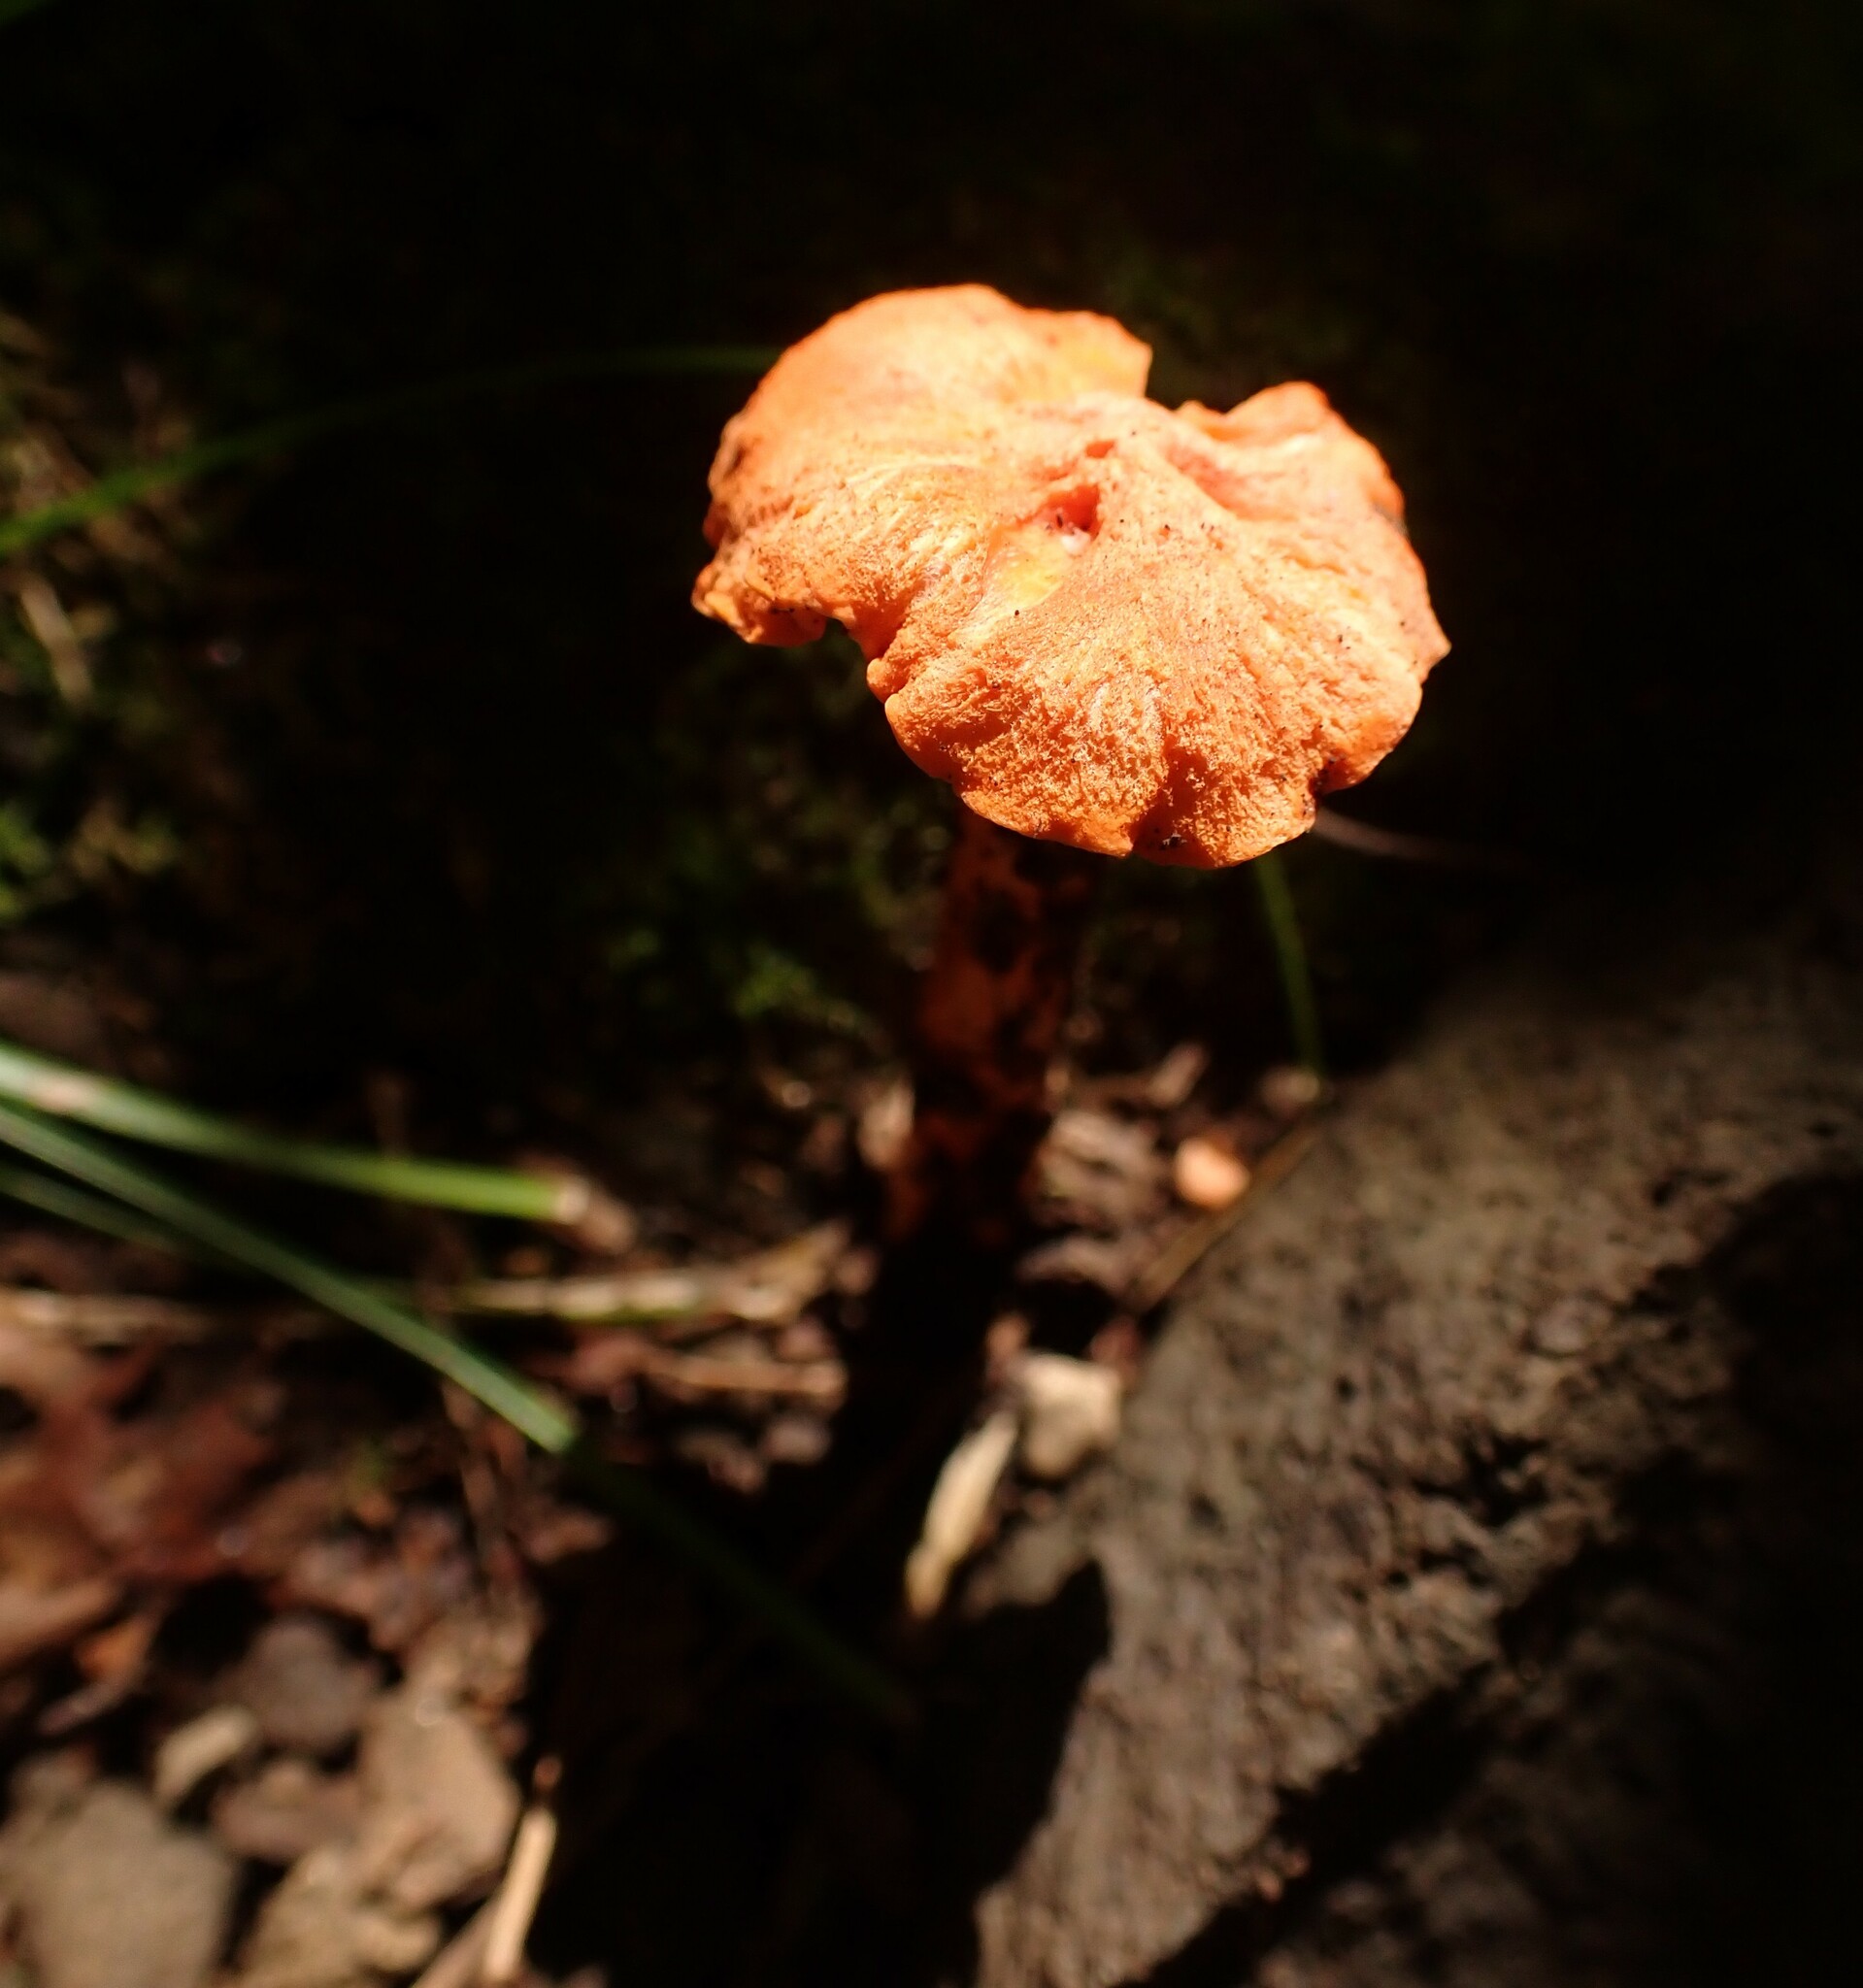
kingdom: Fungi
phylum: Basidiomycota
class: Agaricomycetes
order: Cantharellales
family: Hydnaceae
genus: Cantharellus
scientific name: Cantharellus cinnabarinus
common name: Cinnabar chanterelle
